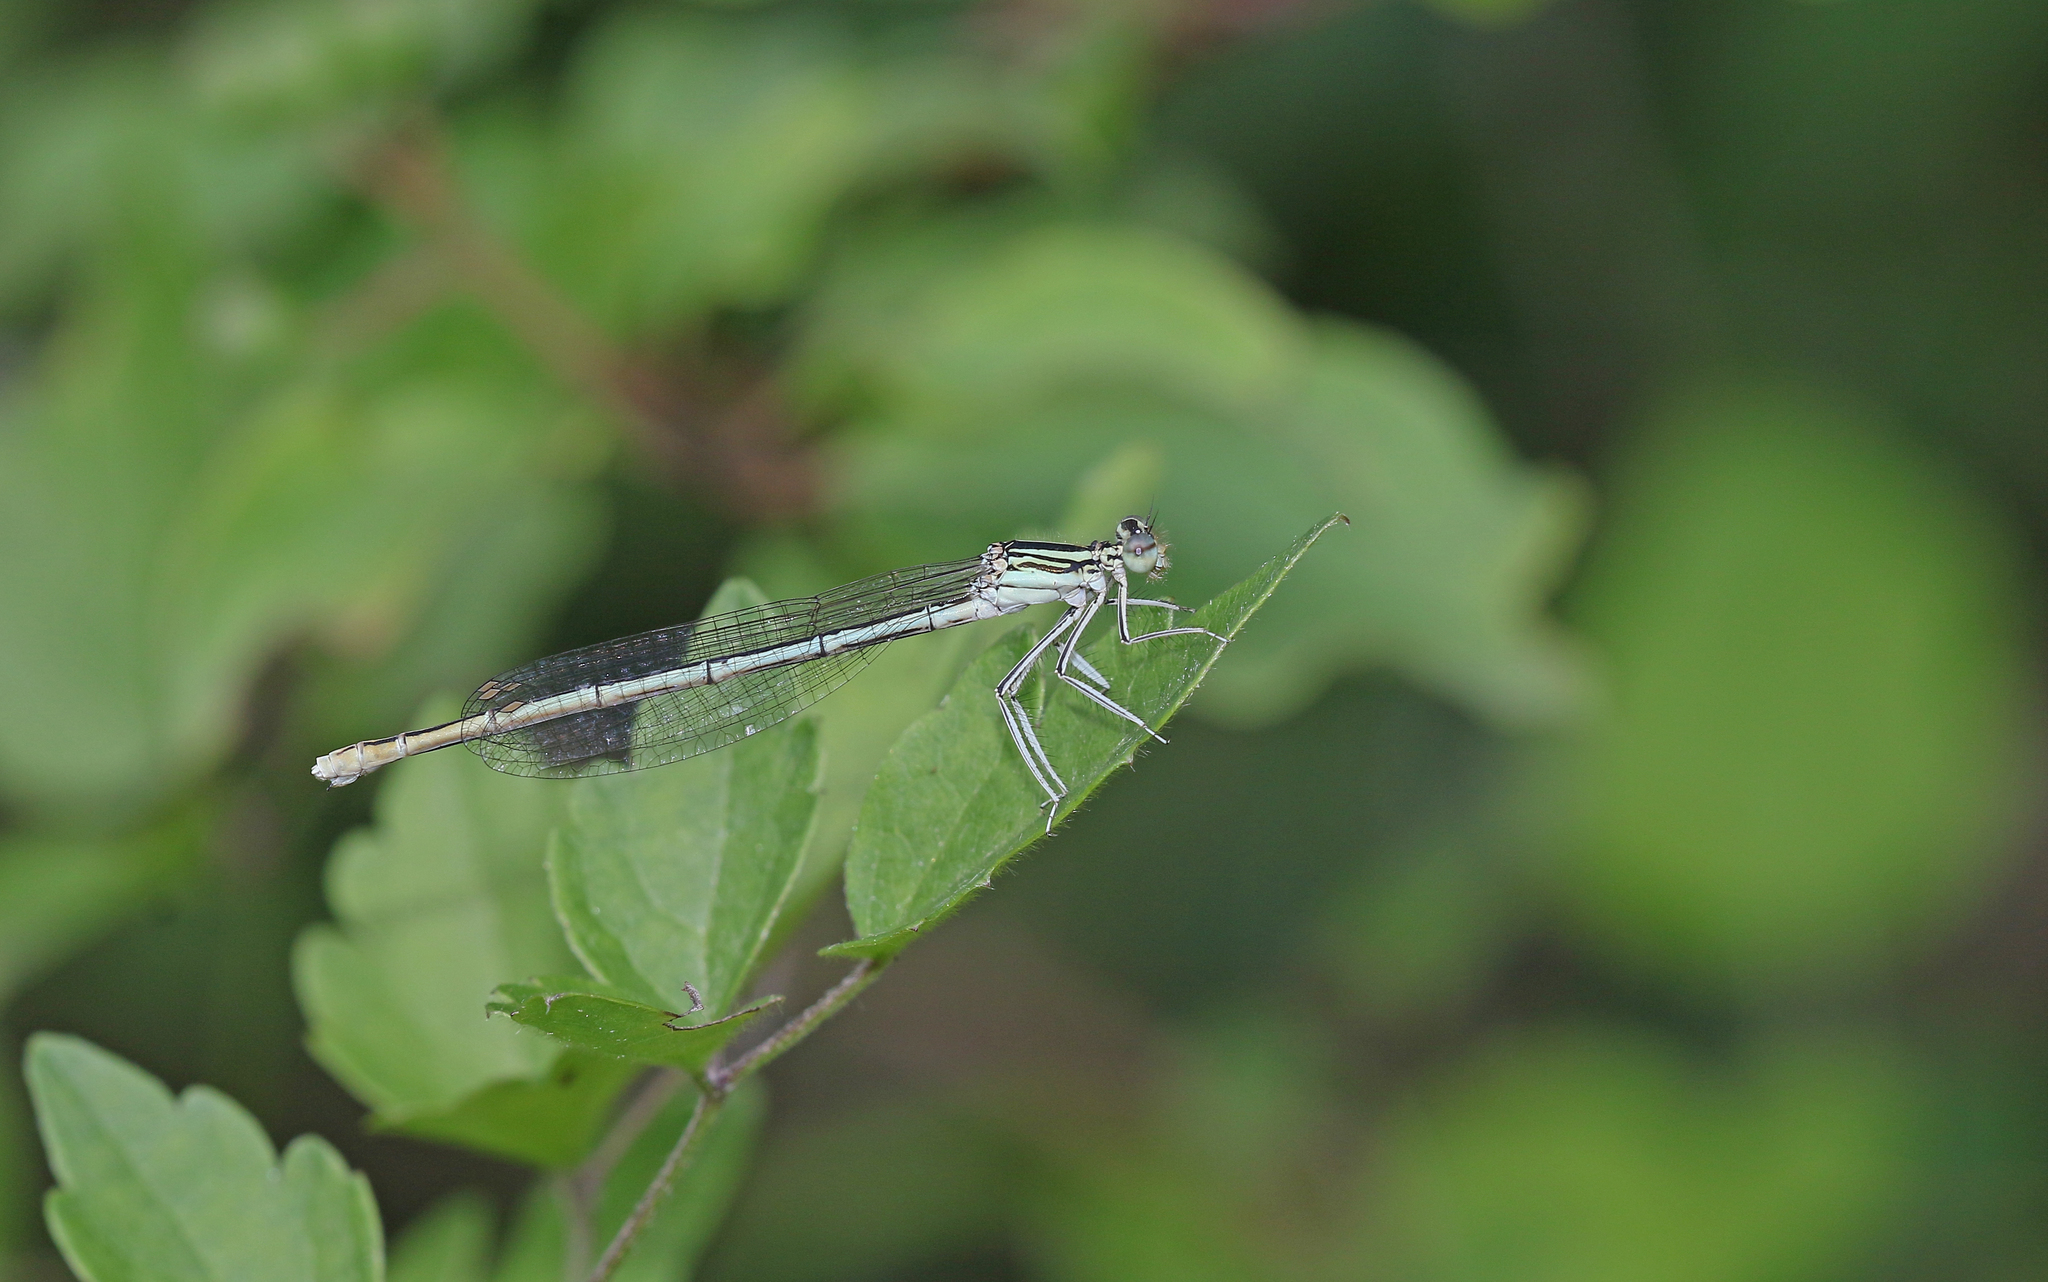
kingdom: Animalia
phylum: Arthropoda
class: Insecta
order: Odonata
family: Platycnemididae
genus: Platycnemis
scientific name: Platycnemis pennipes
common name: White-legged damselfly
